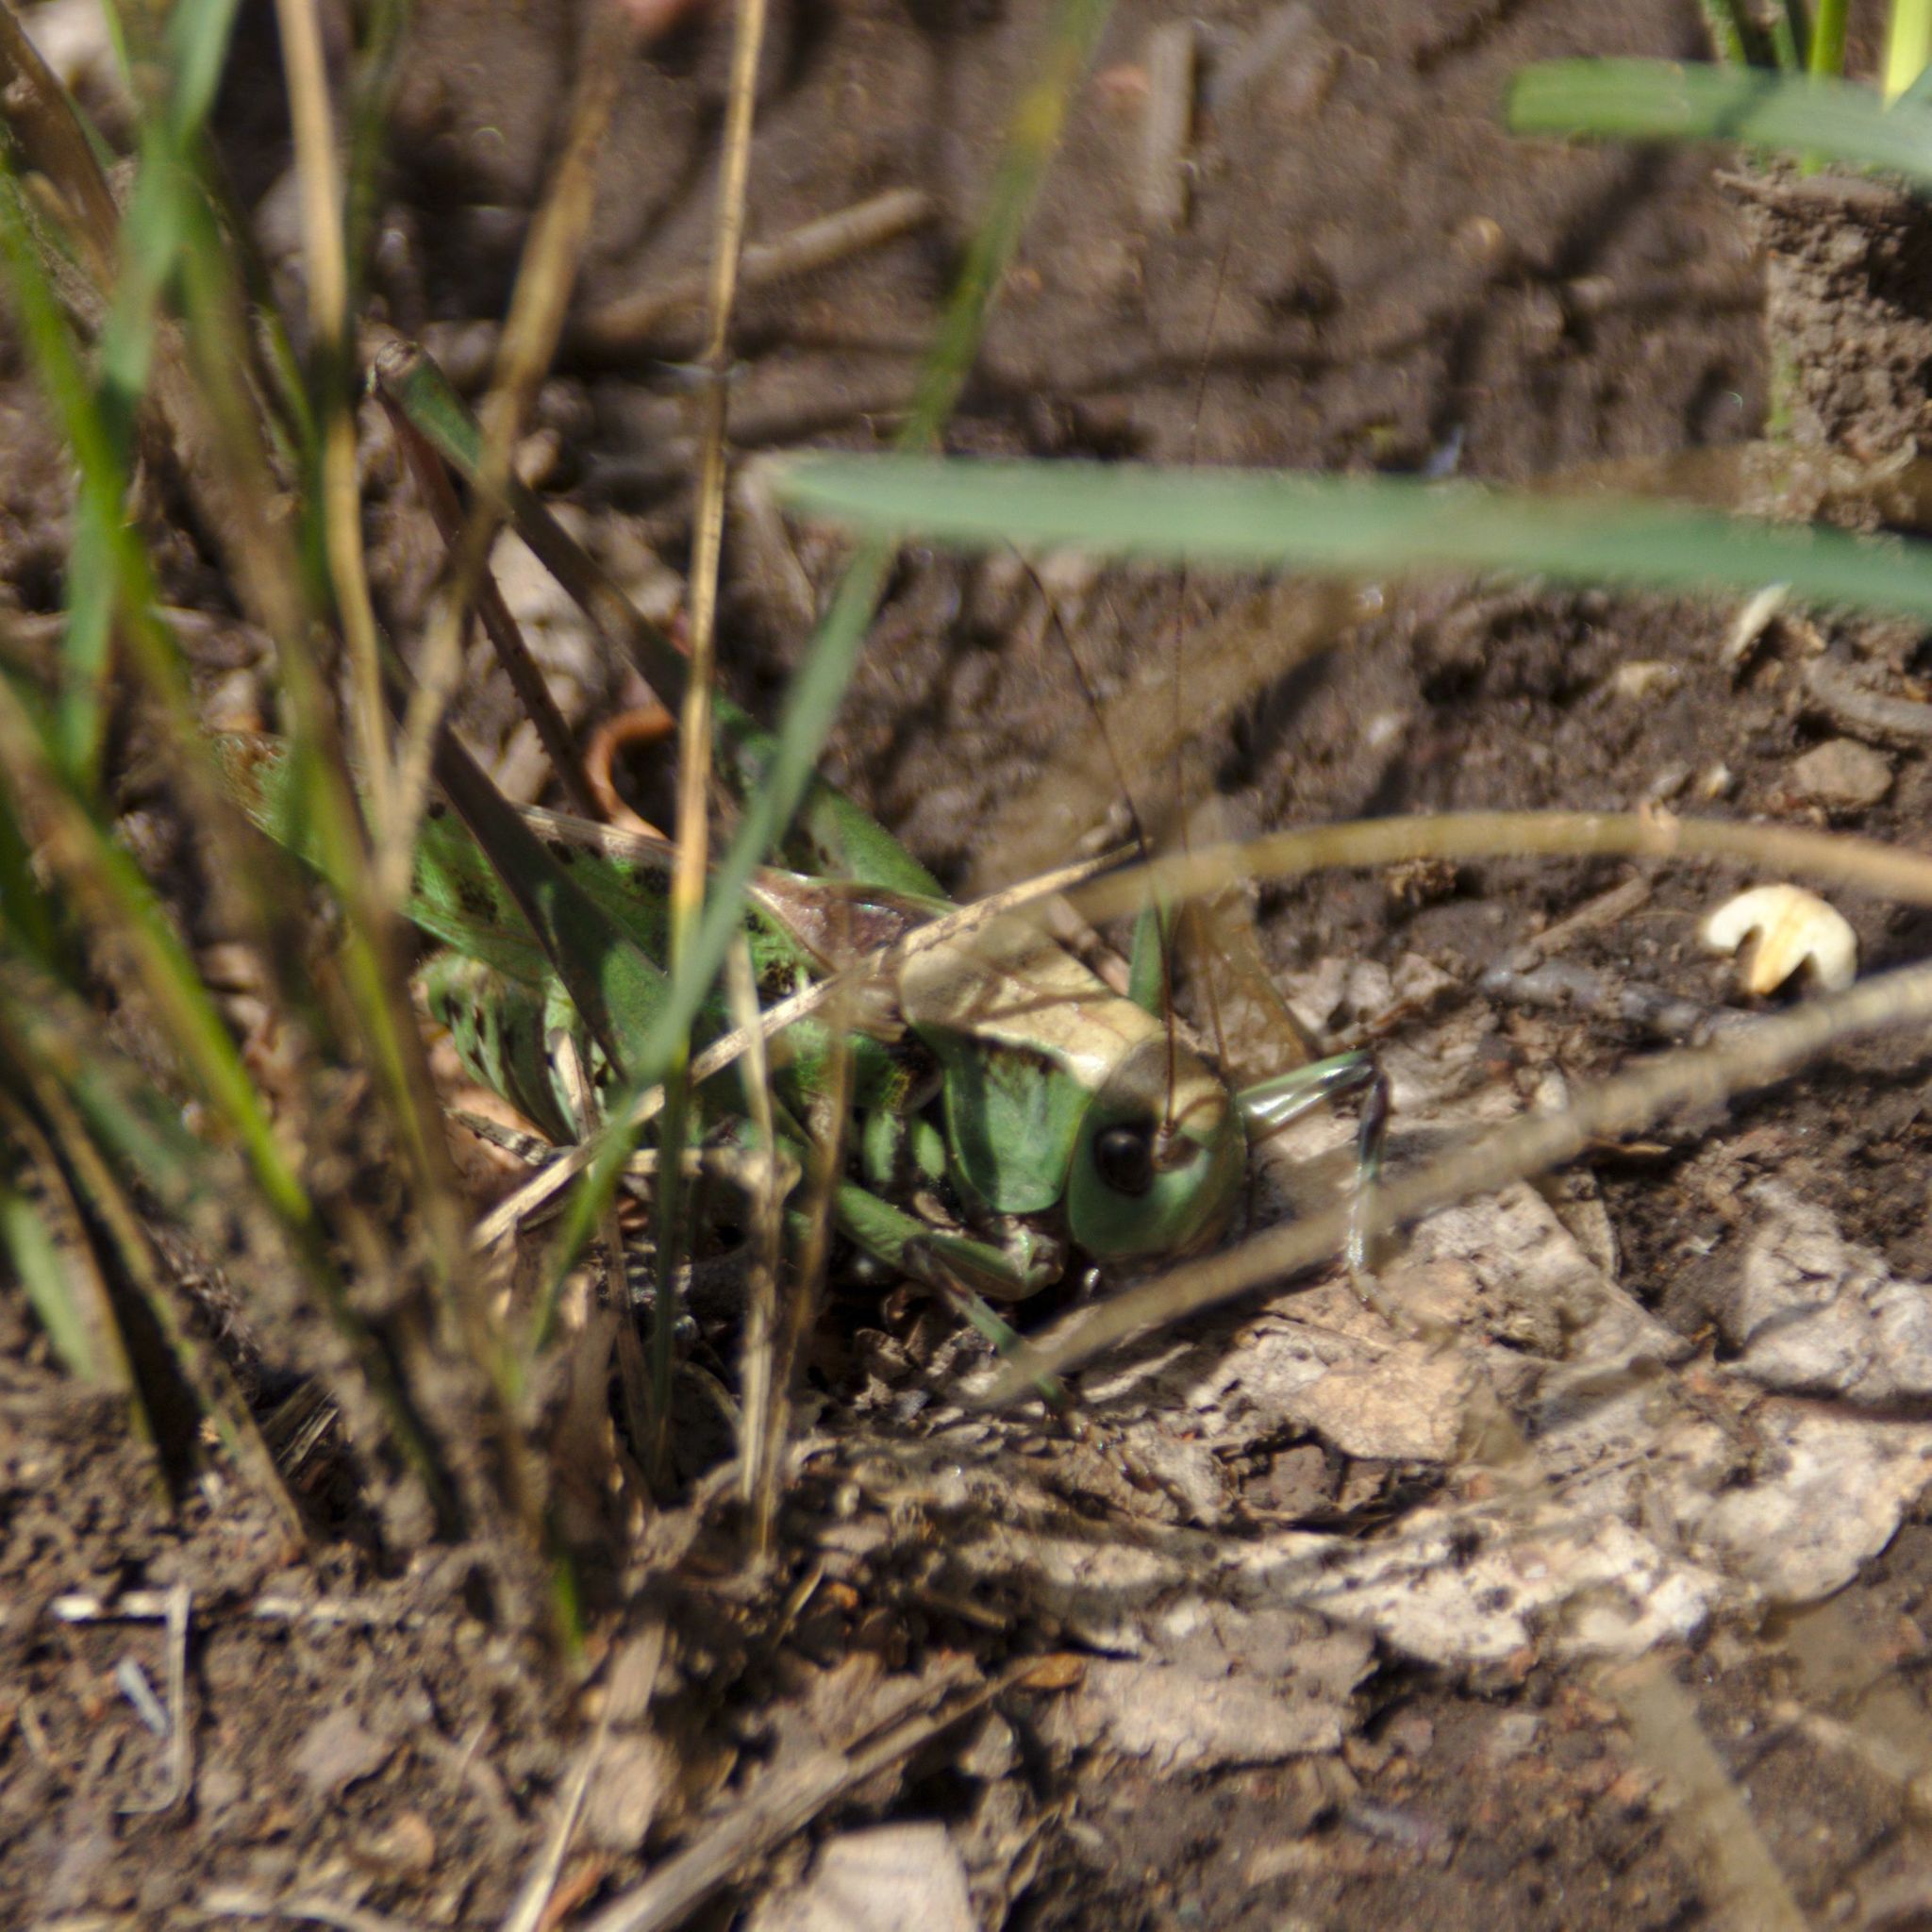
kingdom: Animalia
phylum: Arthropoda
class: Insecta
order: Orthoptera
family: Tettigoniidae
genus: Decticus
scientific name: Decticus verrucivorus
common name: Wart-biter
